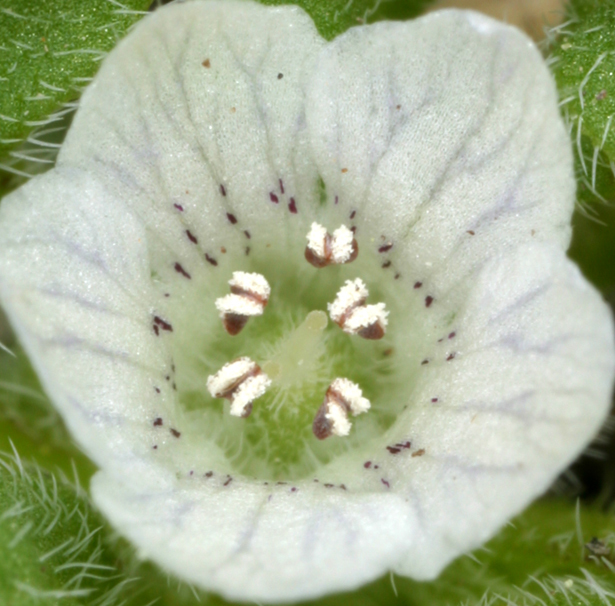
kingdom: Plantae
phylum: Tracheophyta
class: Magnoliopsida
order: Boraginales
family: Hydrophyllaceae
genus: Nemophila
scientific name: Nemophila spatulata
